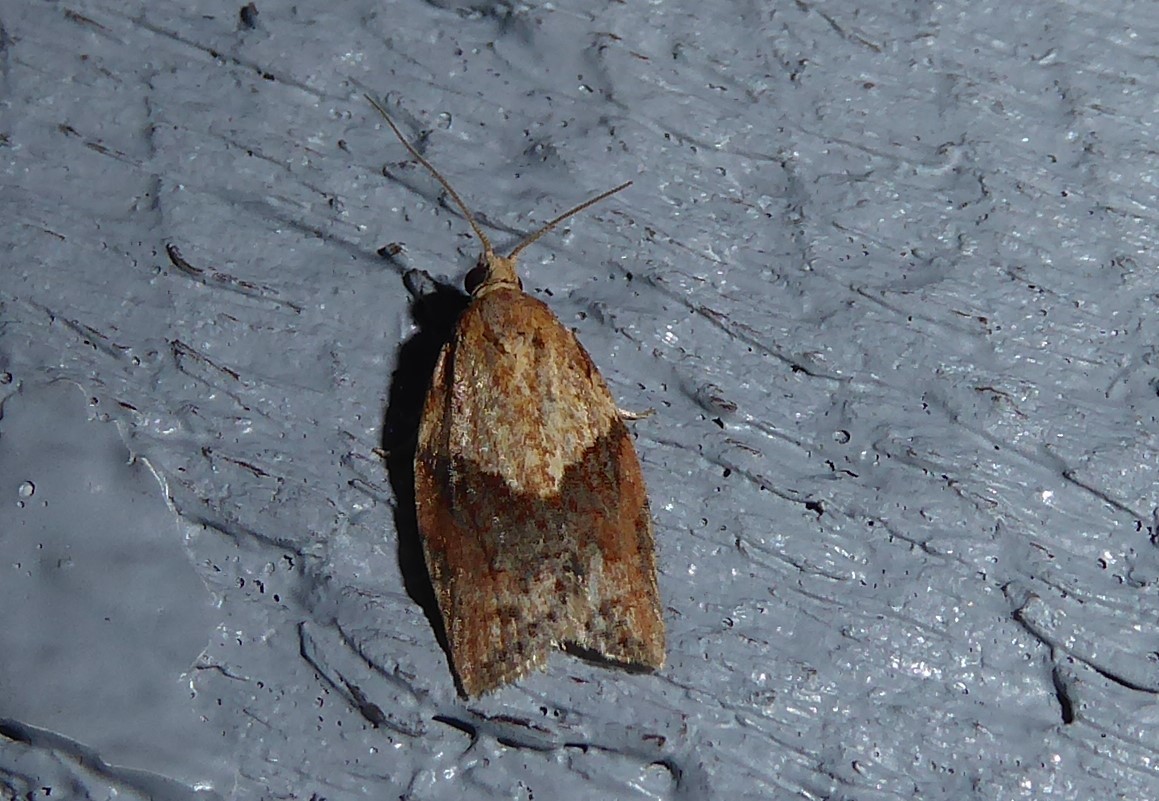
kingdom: Animalia
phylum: Arthropoda
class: Insecta
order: Lepidoptera
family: Tortricidae
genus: Epiphyas
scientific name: Epiphyas postvittana
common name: Light brown apple moth
